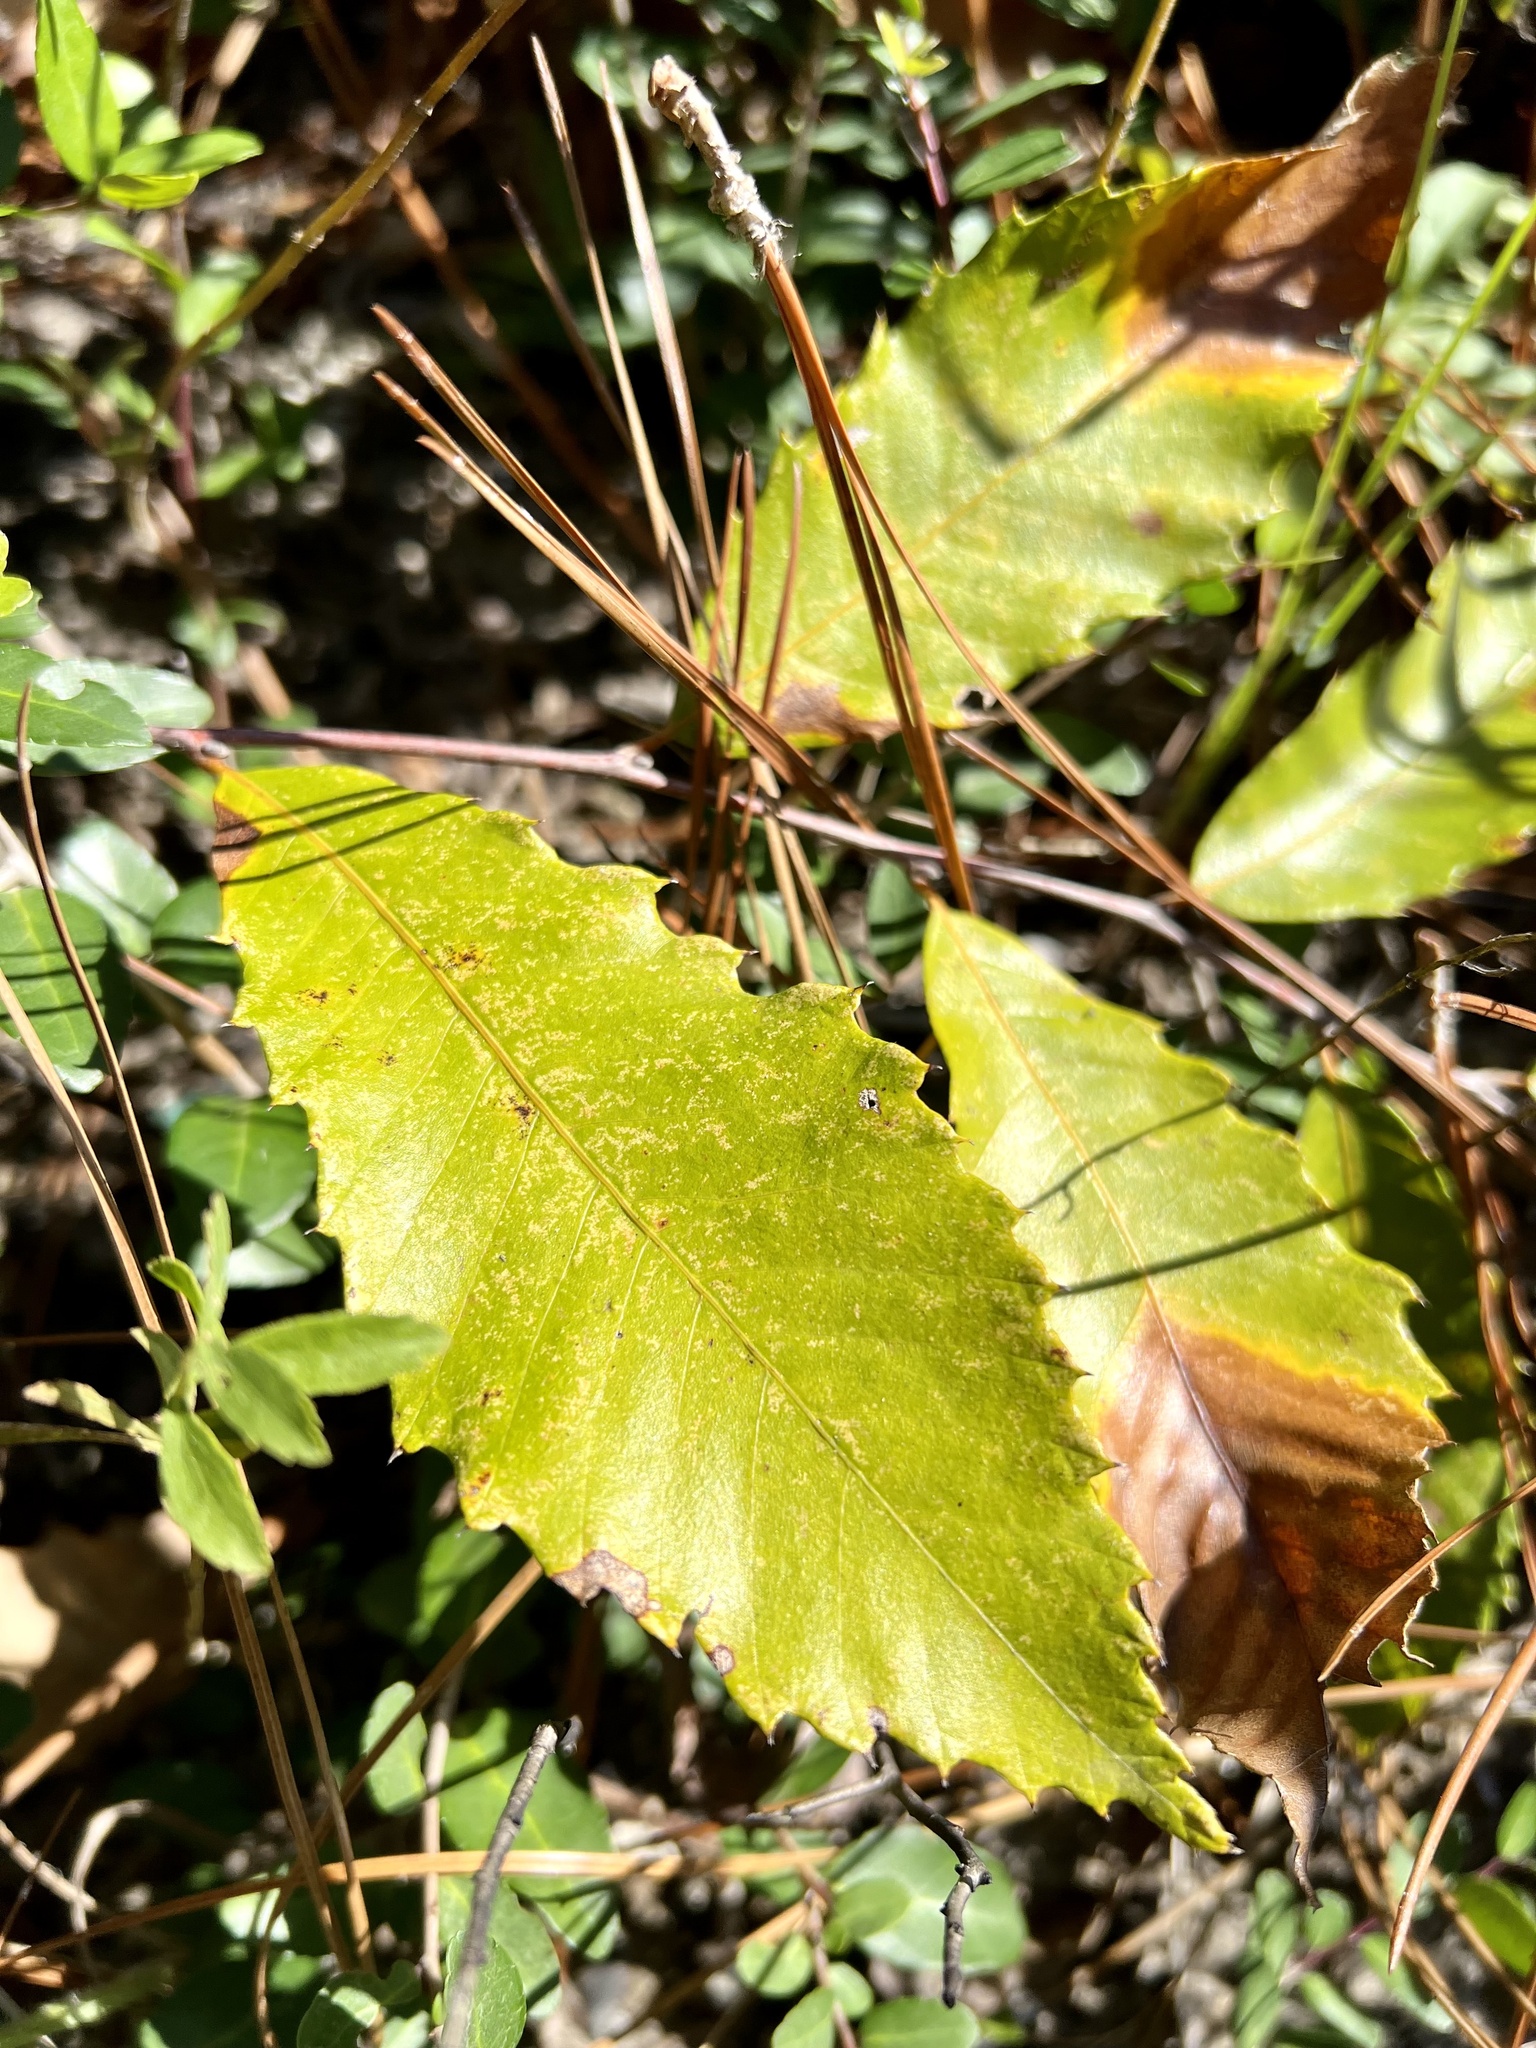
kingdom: Plantae
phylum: Tracheophyta
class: Magnoliopsida
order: Fagales
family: Fagaceae
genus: Castanea
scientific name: Castanea pumila
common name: Chinkapin
